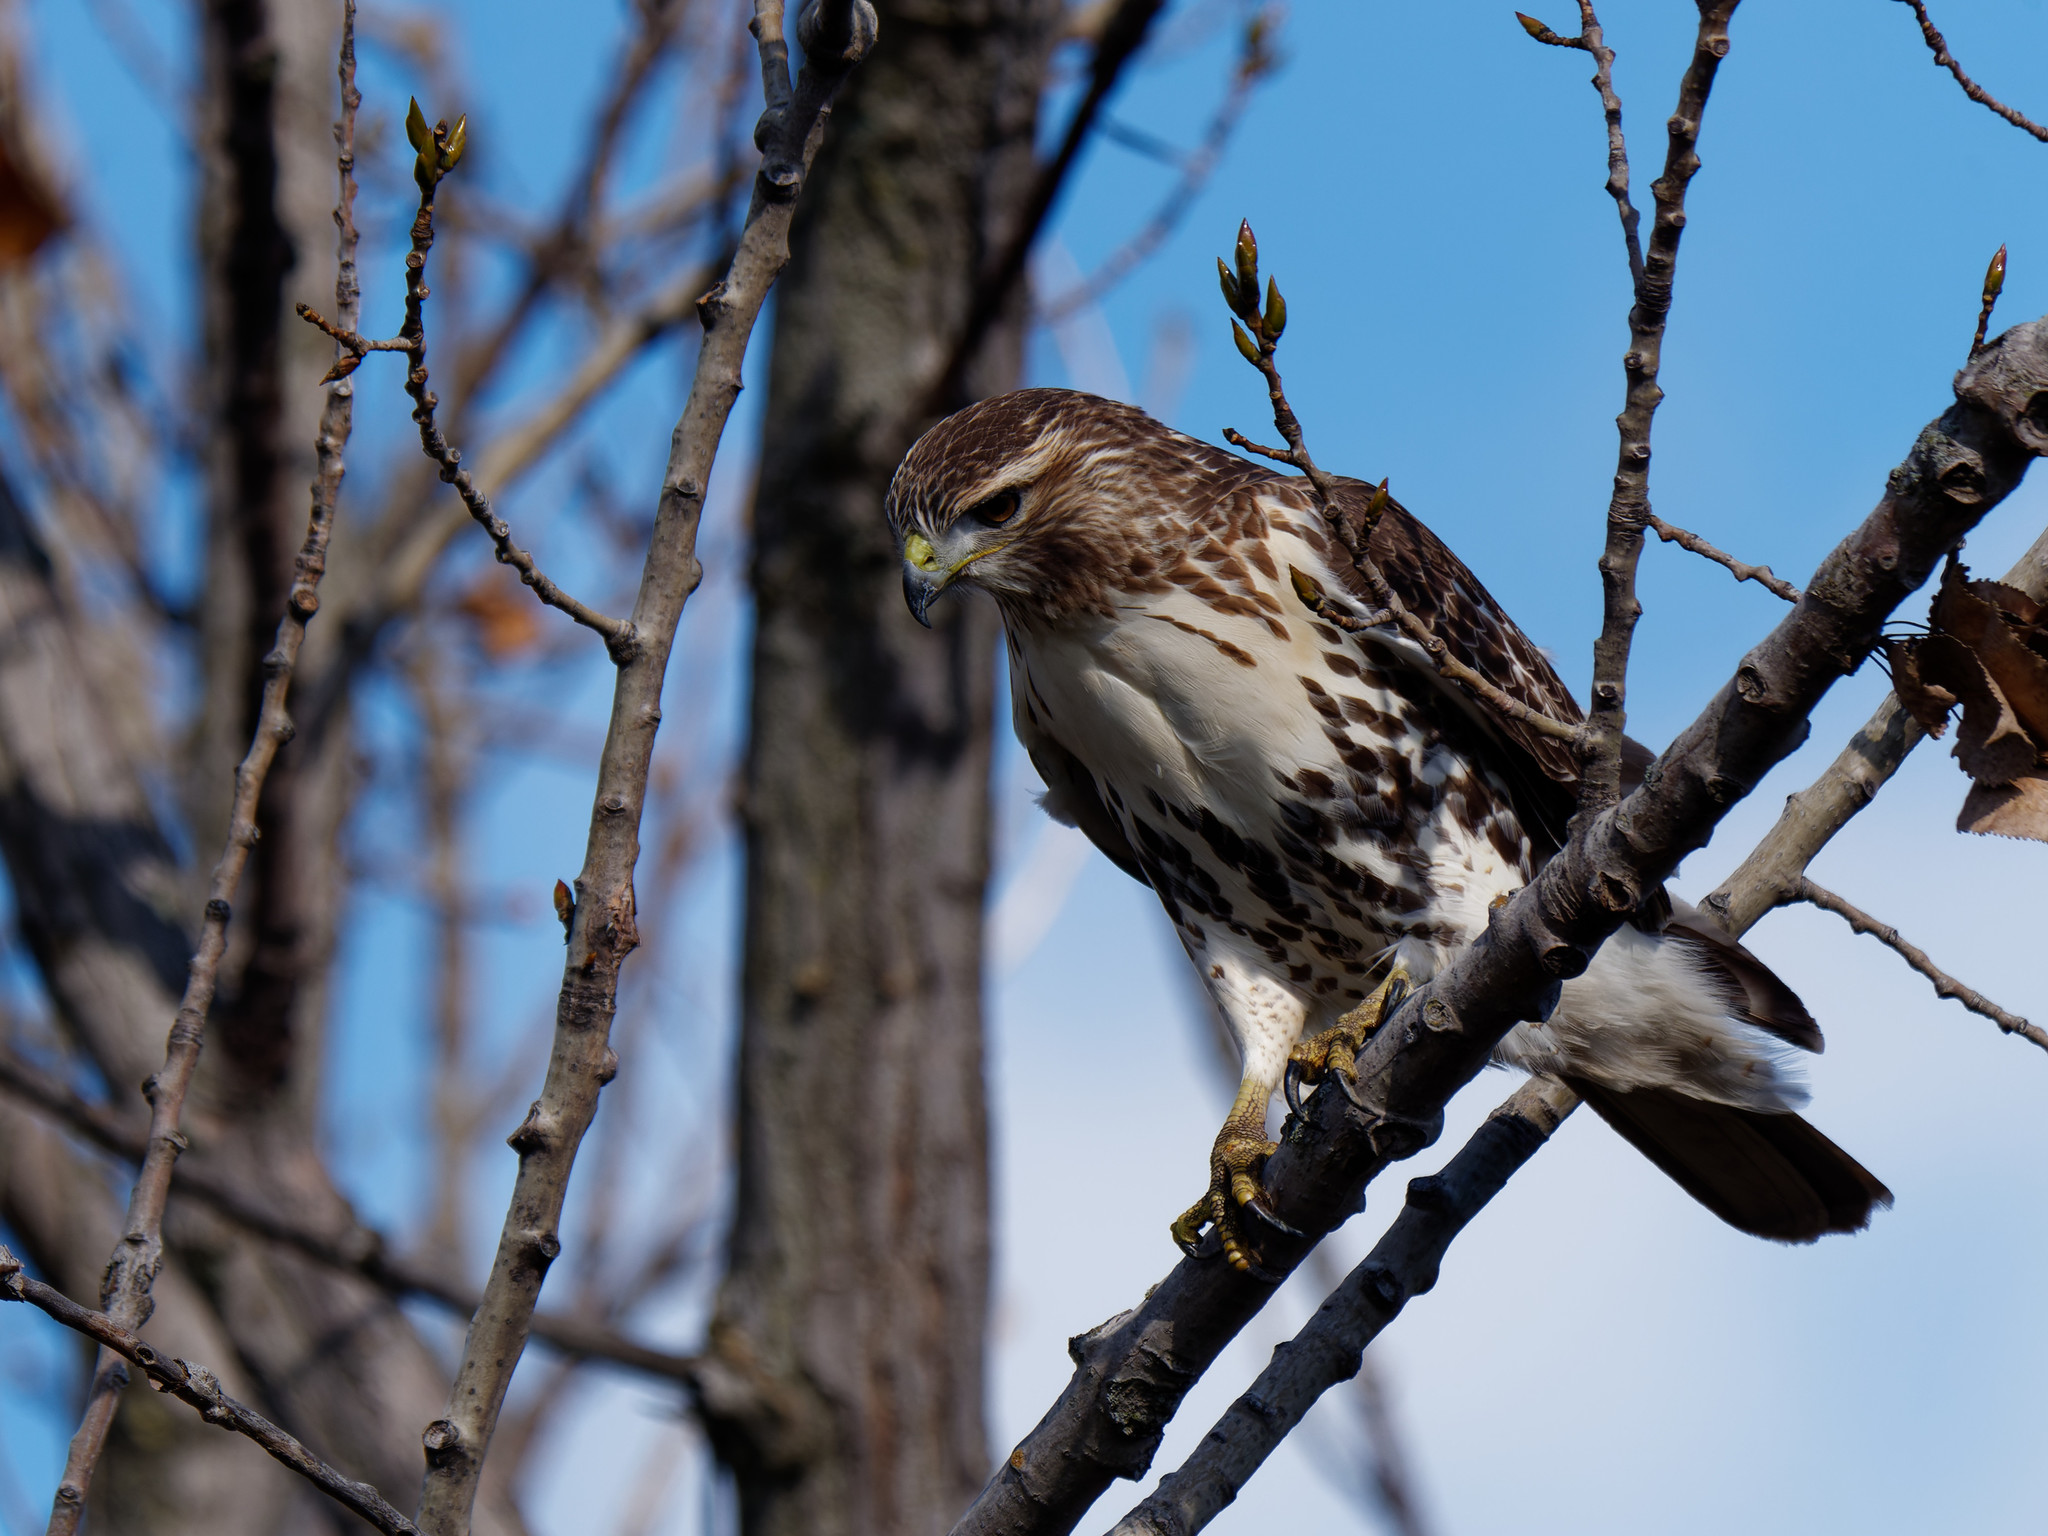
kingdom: Animalia
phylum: Chordata
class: Aves
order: Accipitriformes
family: Accipitridae
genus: Buteo
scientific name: Buteo jamaicensis
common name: Red-tailed hawk
